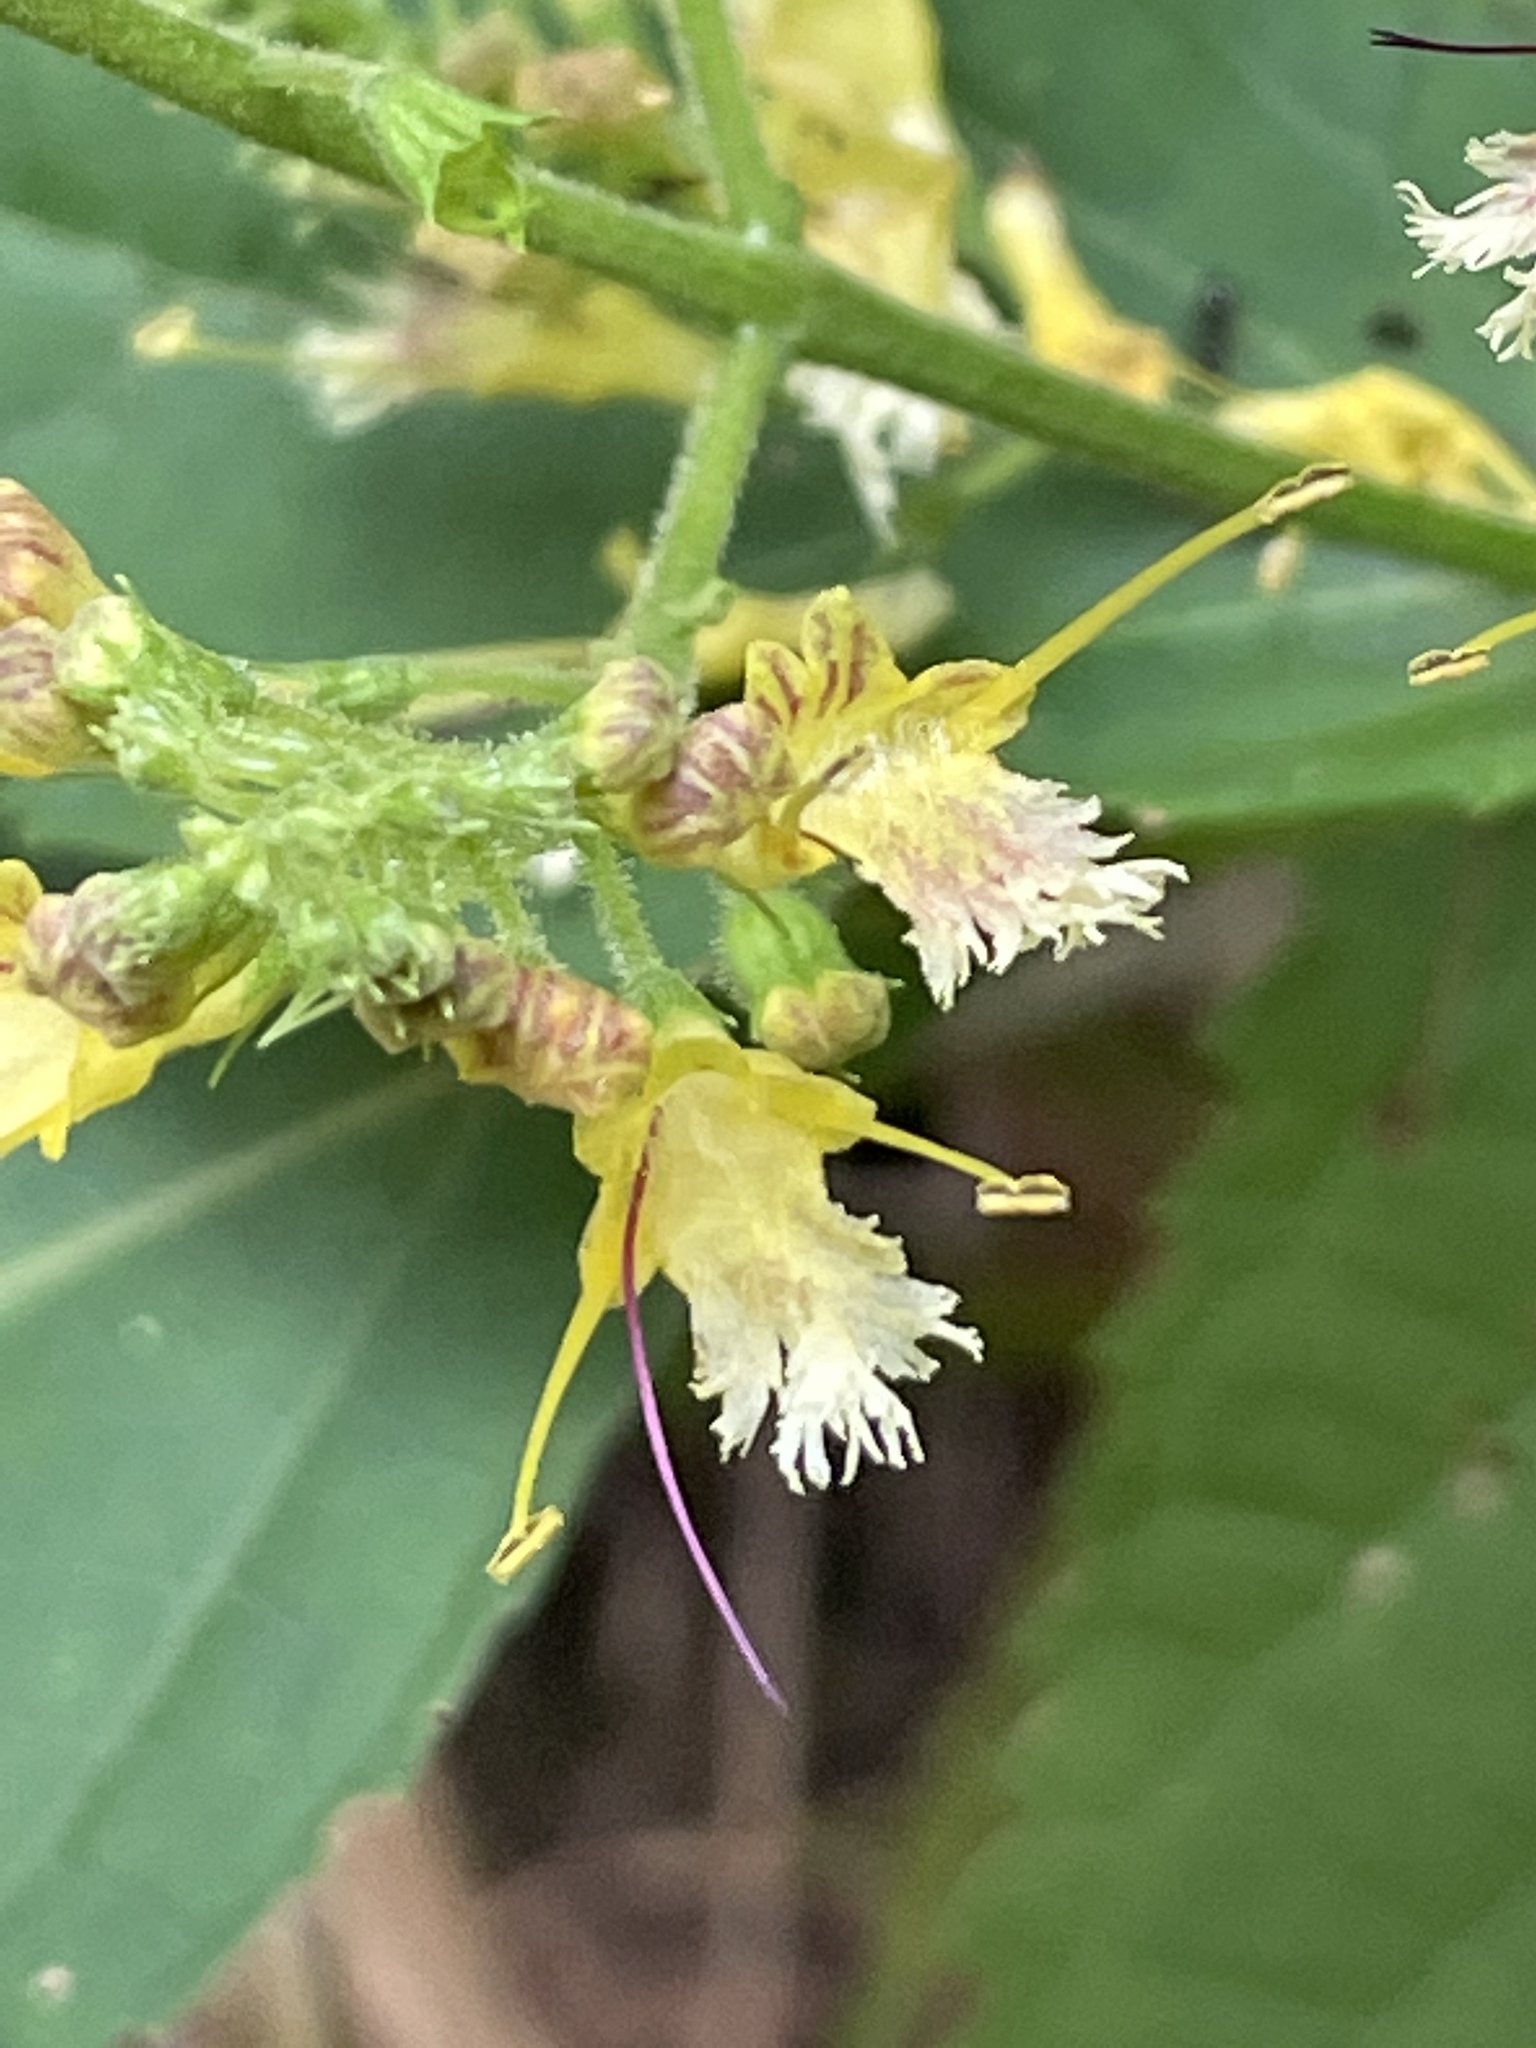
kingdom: Plantae
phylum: Tracheophyta
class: Magnoliopsida
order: Lamiales
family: Lamiaceae
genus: Collinsonia
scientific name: Collinsonia canadensis
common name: Northern horsebalm
